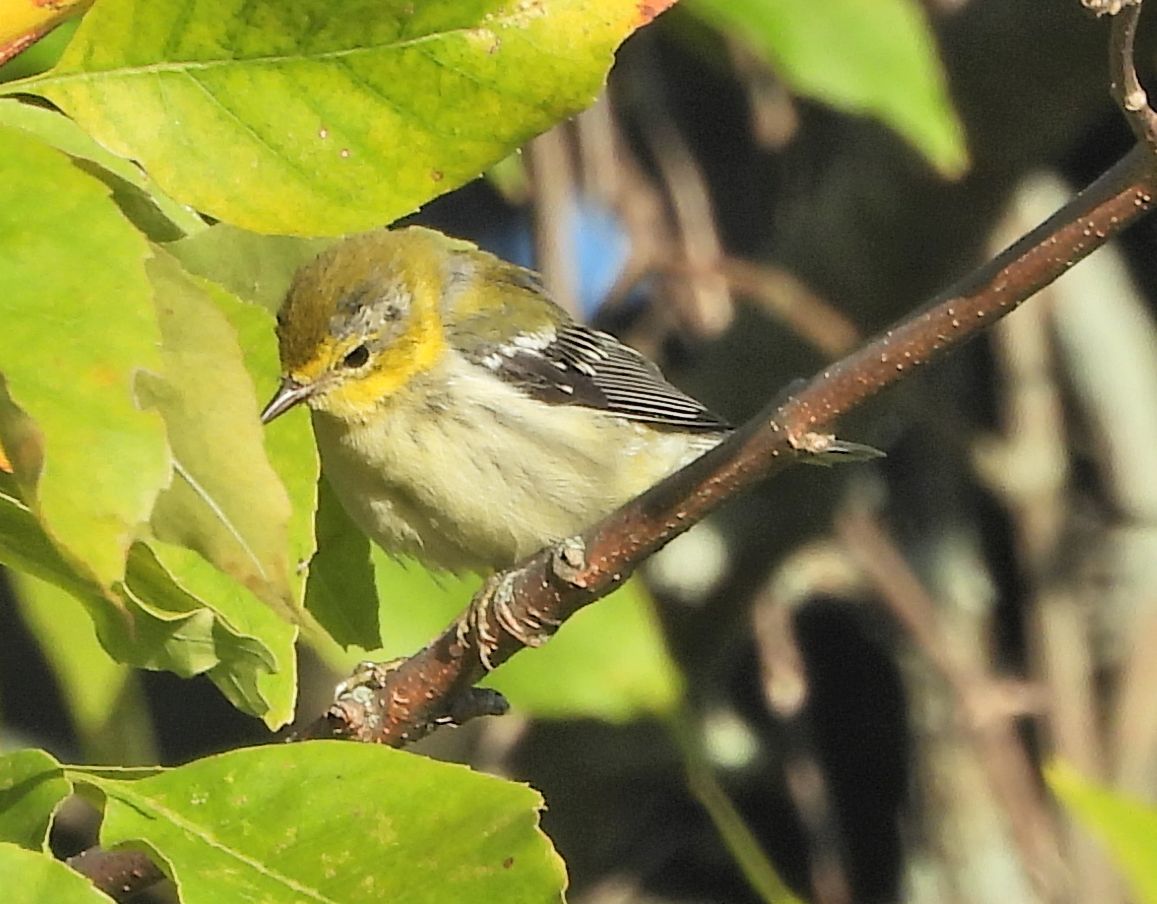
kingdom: Animalia
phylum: Chordata
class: Aves
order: Passeriformes
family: Parulidae
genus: Setophaga
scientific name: Setophaga virens
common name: Black-throated green warbler
